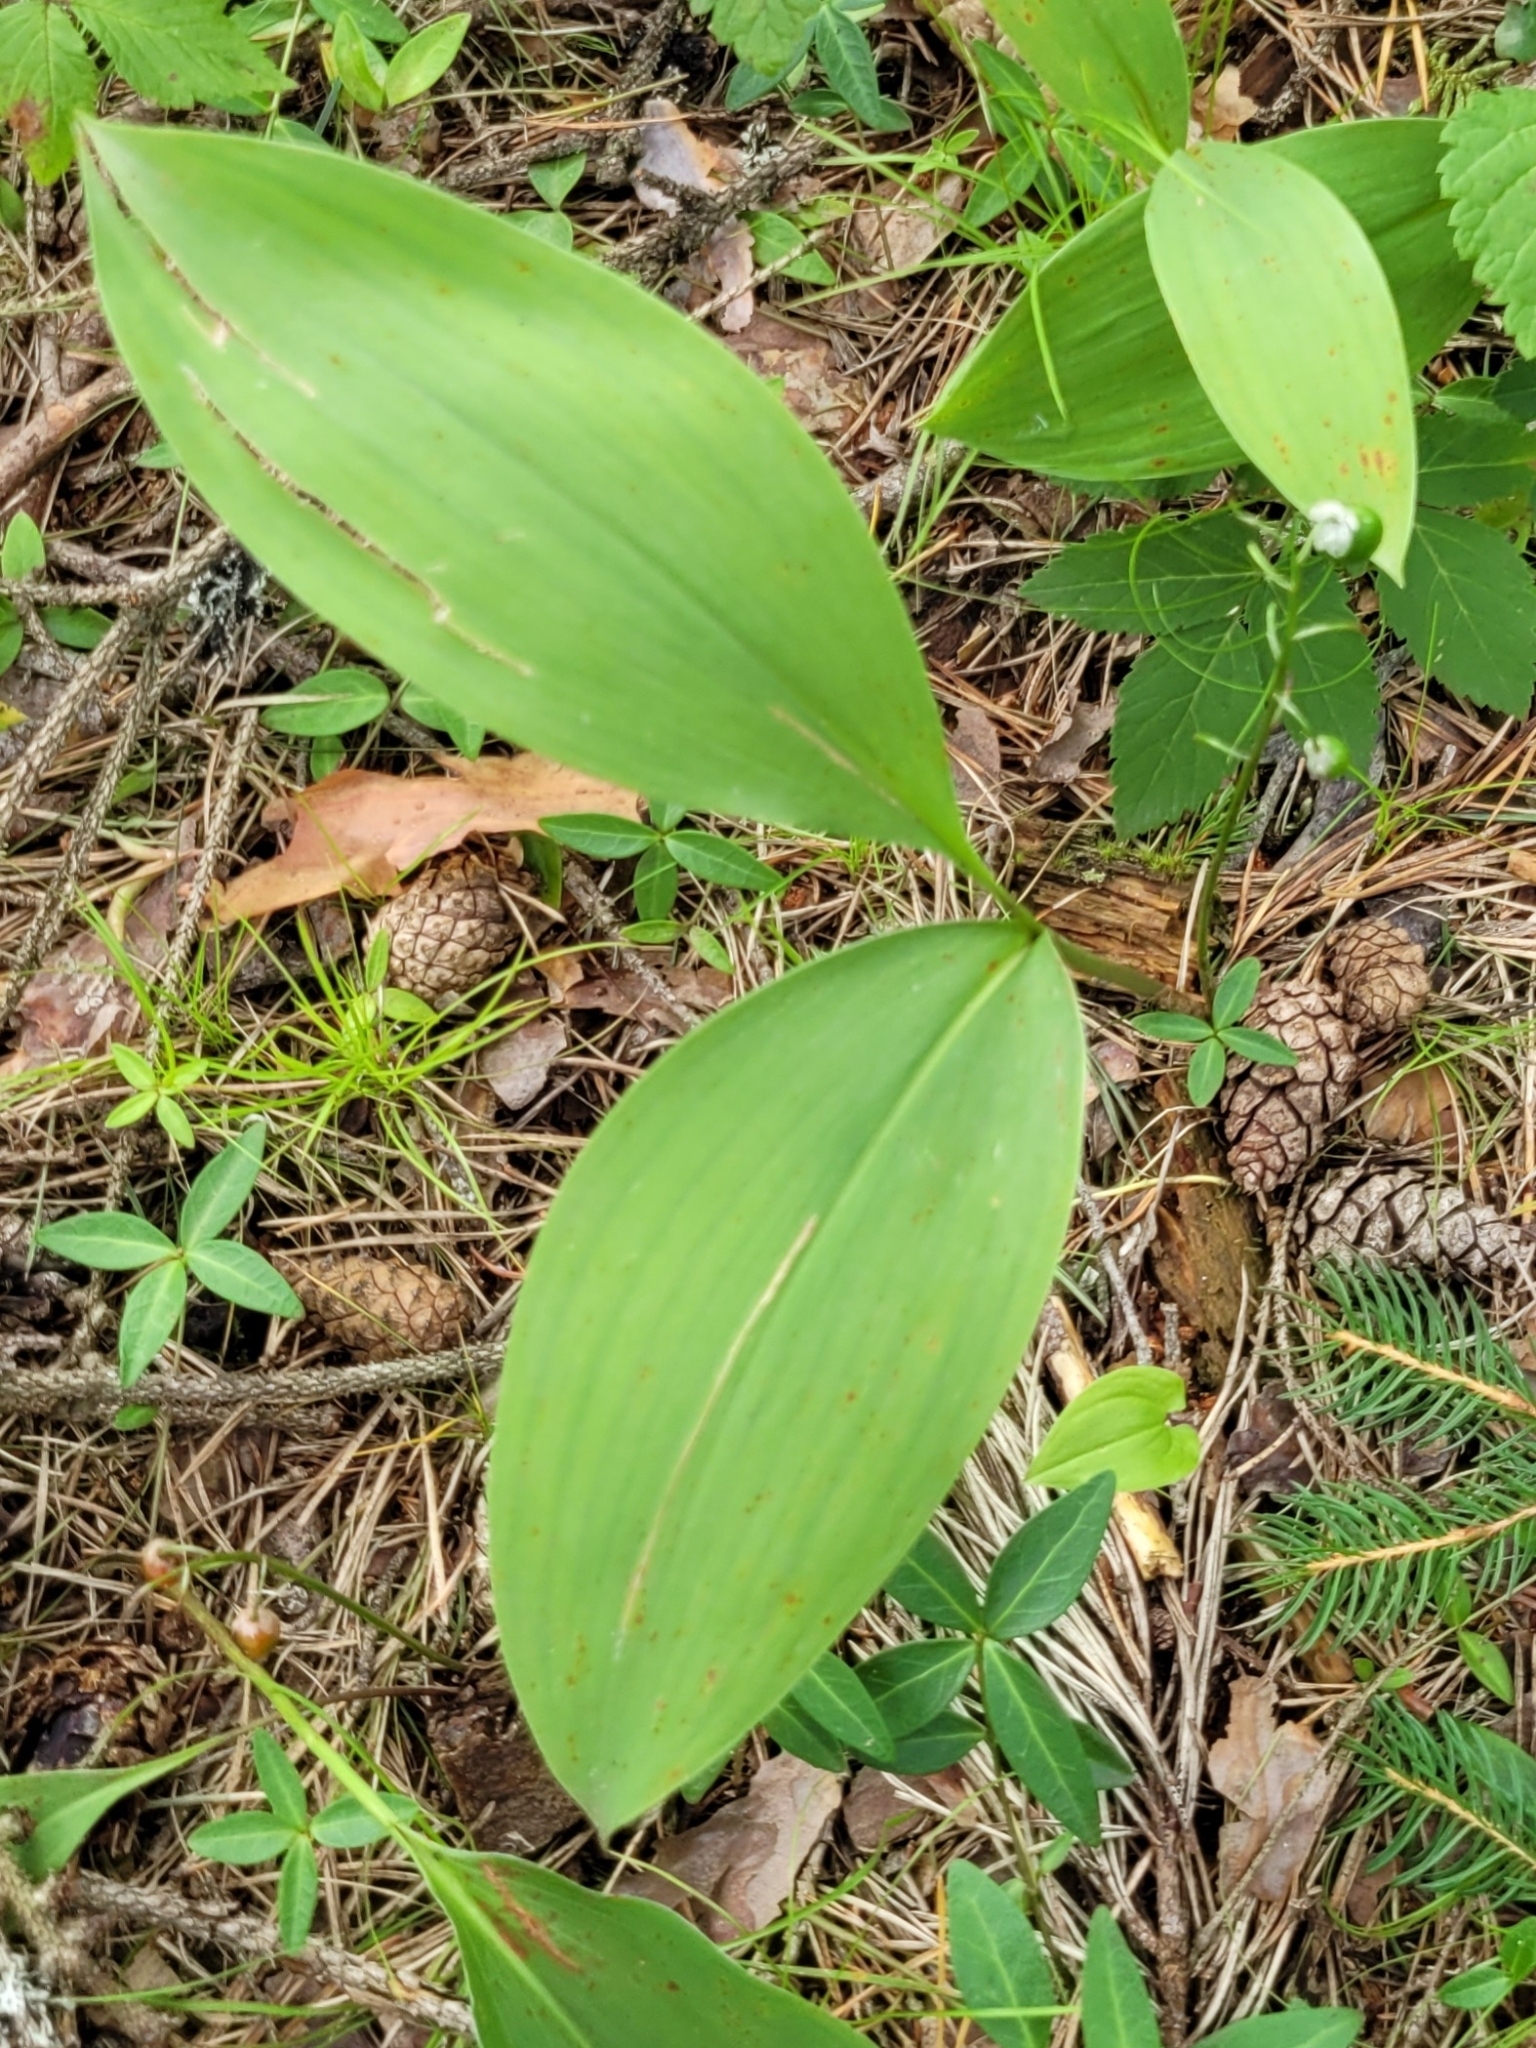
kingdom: Plantae
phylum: Tracheophyta
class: Liliopsida
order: Asparagales
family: Asparagaceae
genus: Convallaria
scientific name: Convallaria majalis
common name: Lily-of-the-valley
